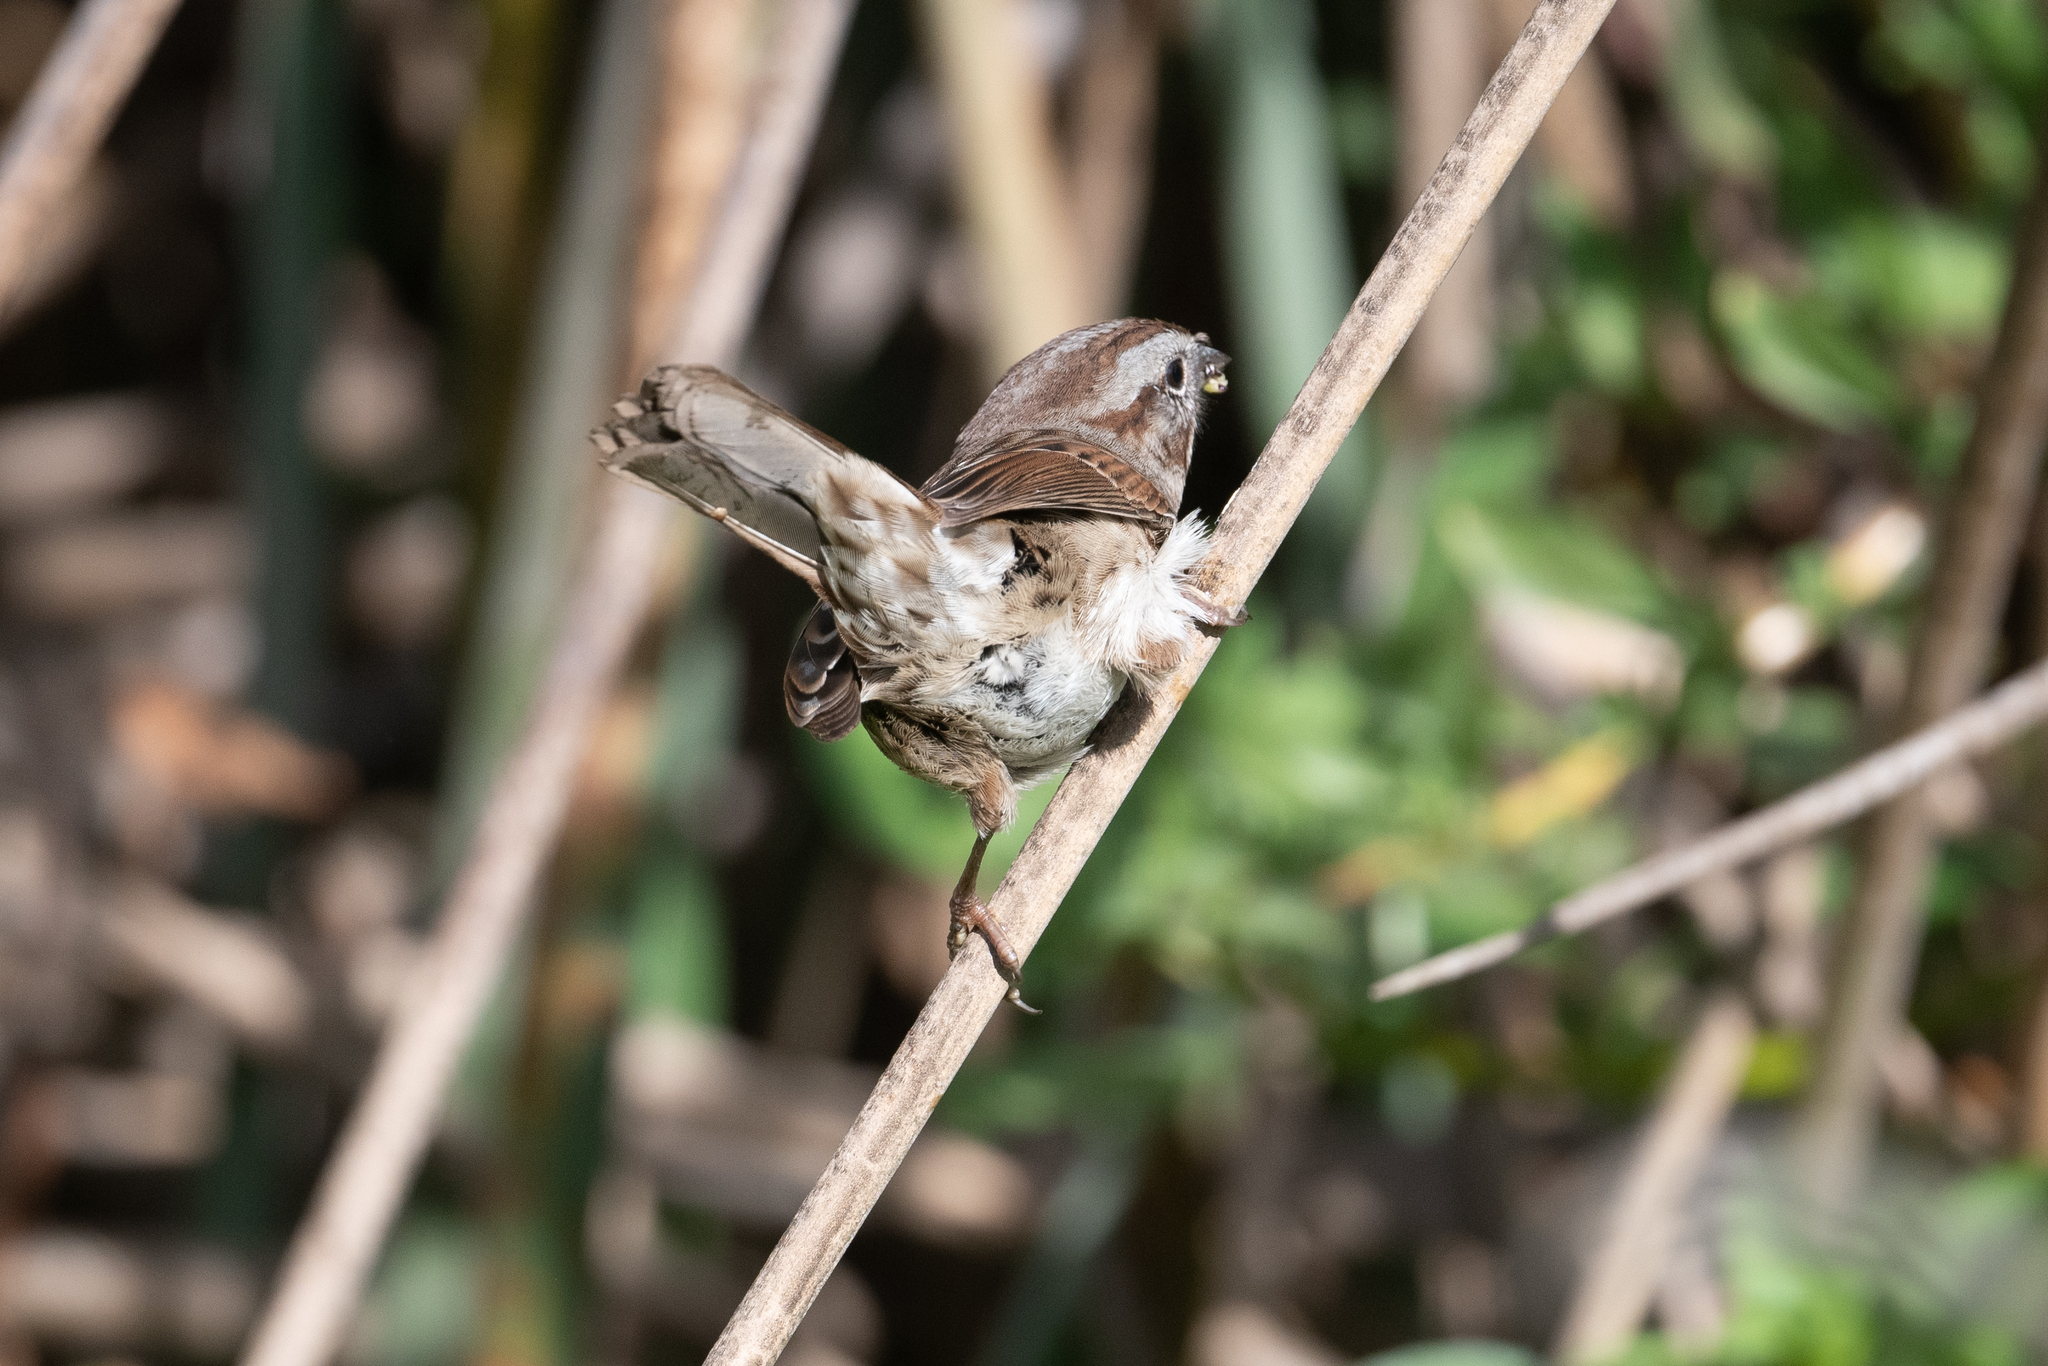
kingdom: Animalia
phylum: Chordata
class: Aves
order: Passeriformes
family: Passerellidae
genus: Melospiza
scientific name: Melospiza melodia
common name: Song sparrow
